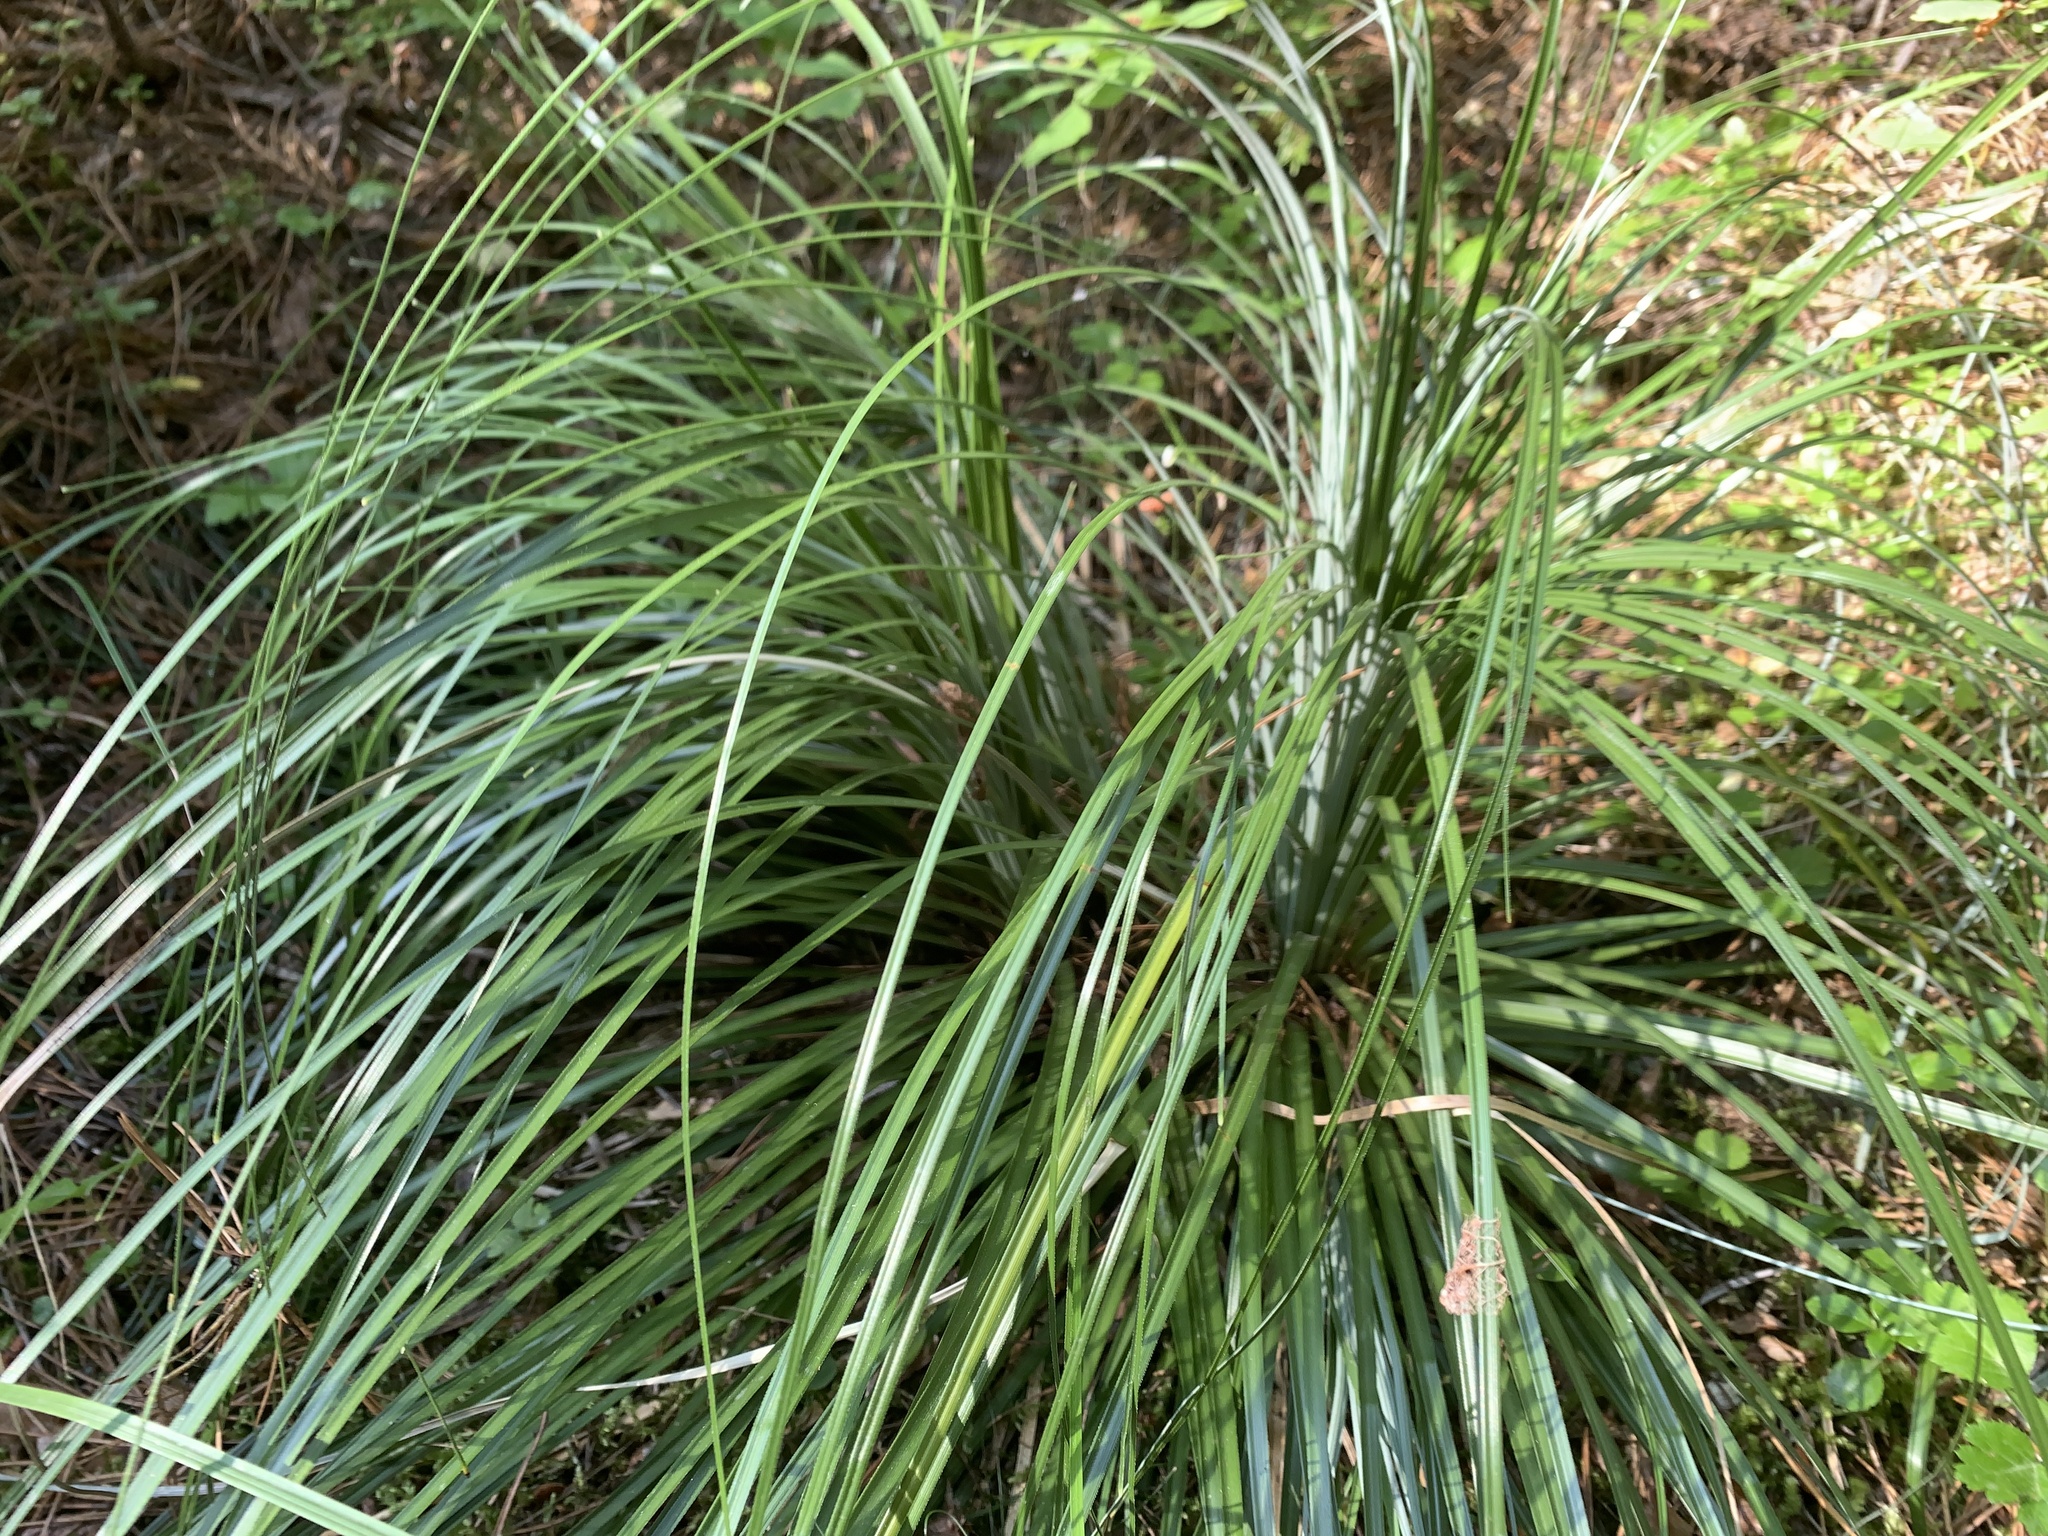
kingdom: Plantae
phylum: Tracheophyta
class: Liliopsida
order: Liliales
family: Melanthiaceae
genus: Xerophyllum
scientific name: Xerophyllum tenax
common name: Bear-grass
